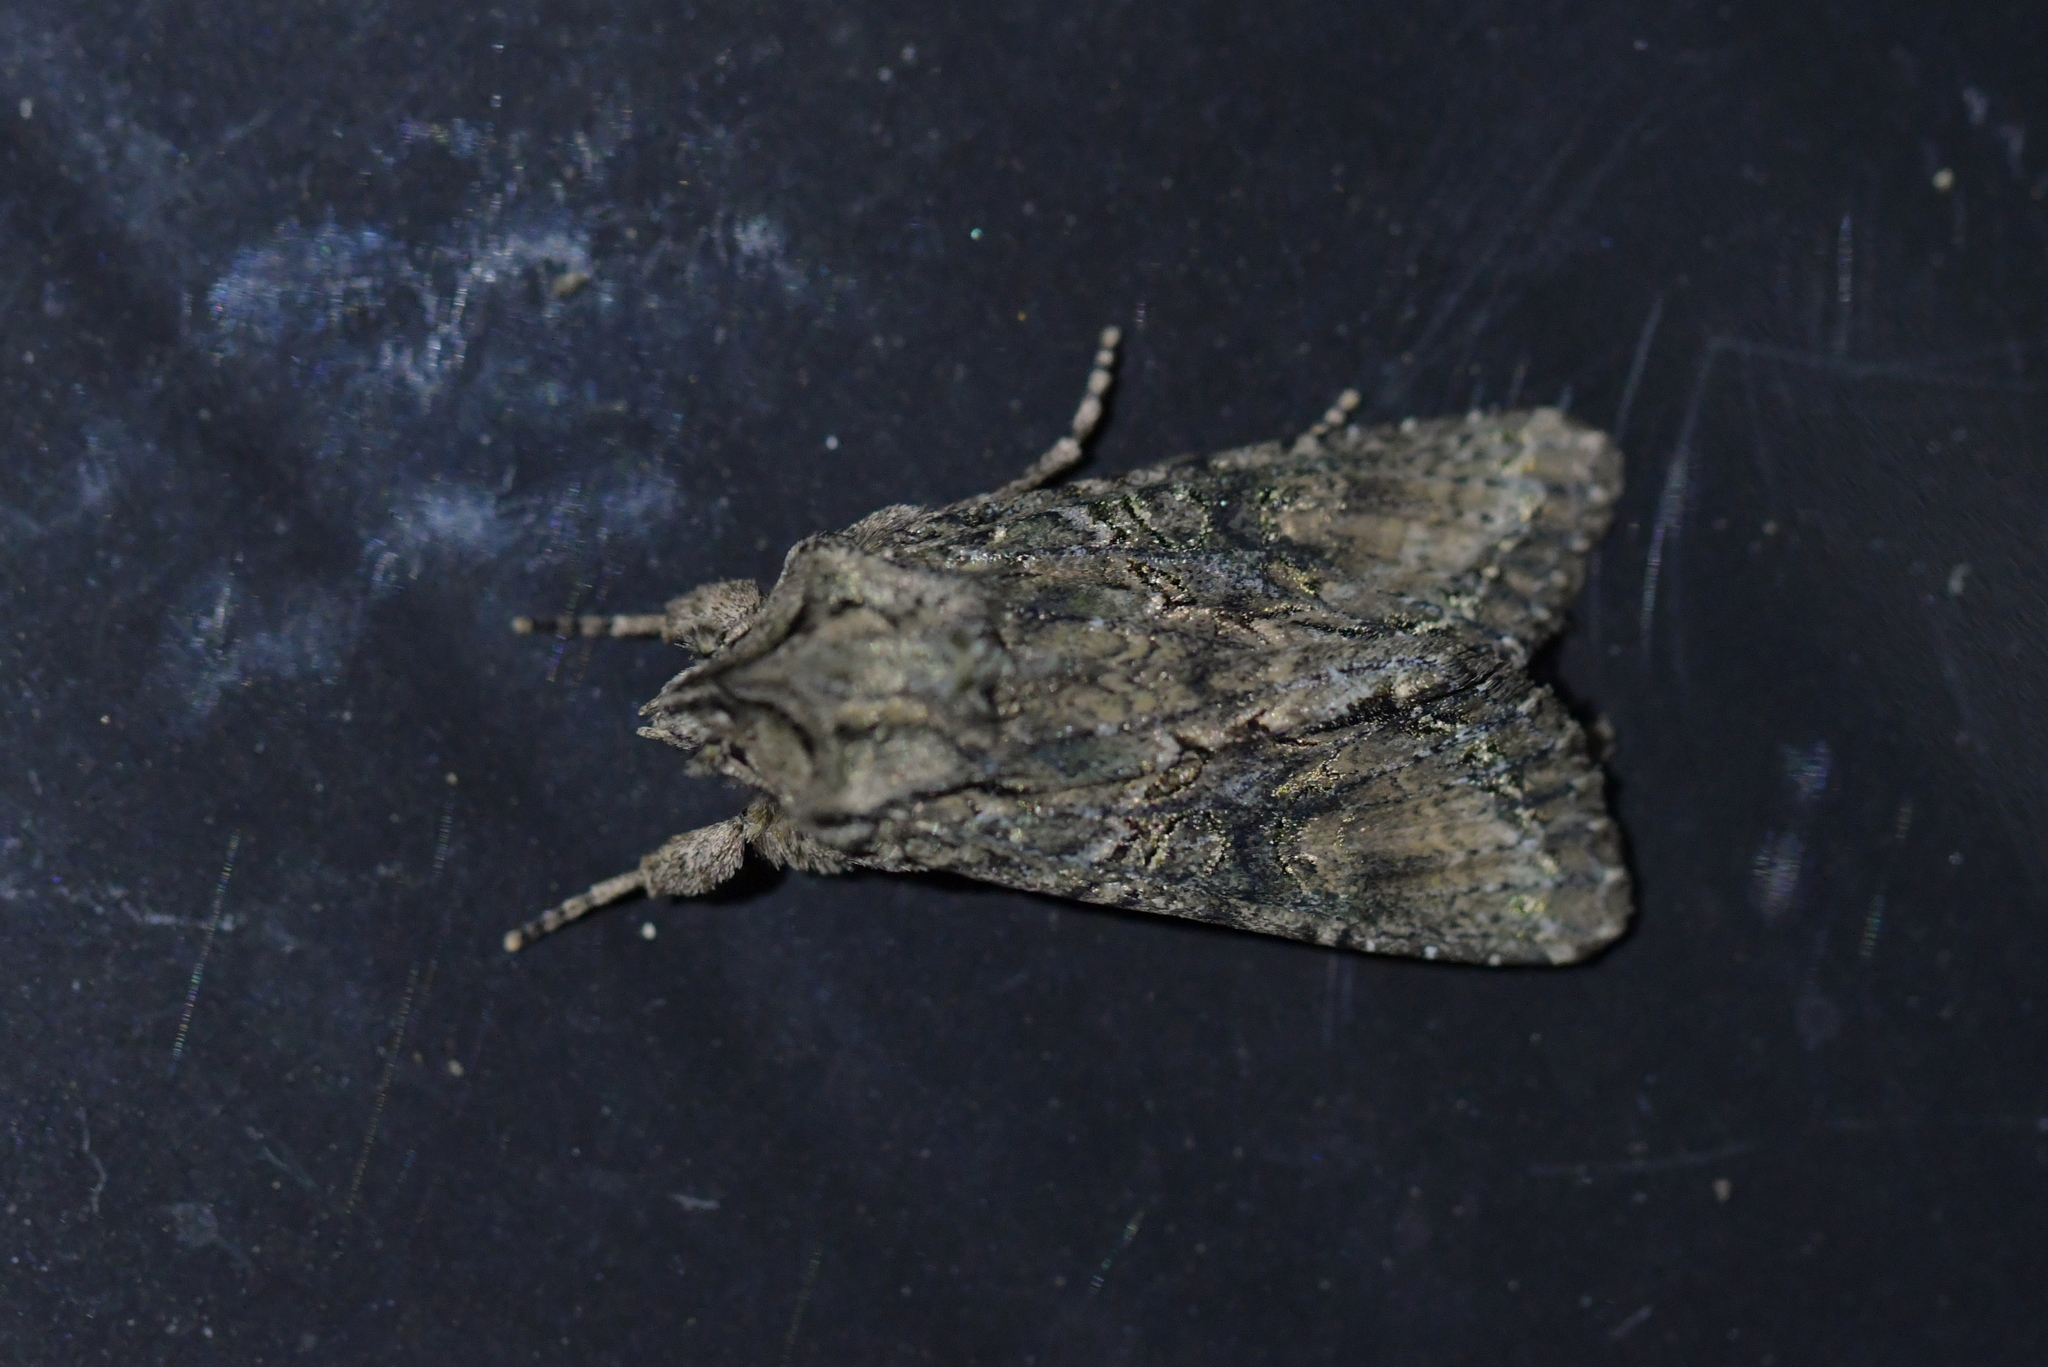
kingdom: Animalia
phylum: Arthropoda
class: Insecta
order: Lepidoptera
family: Noctuidae
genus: Ichneutica
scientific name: Ichneutica mutans
